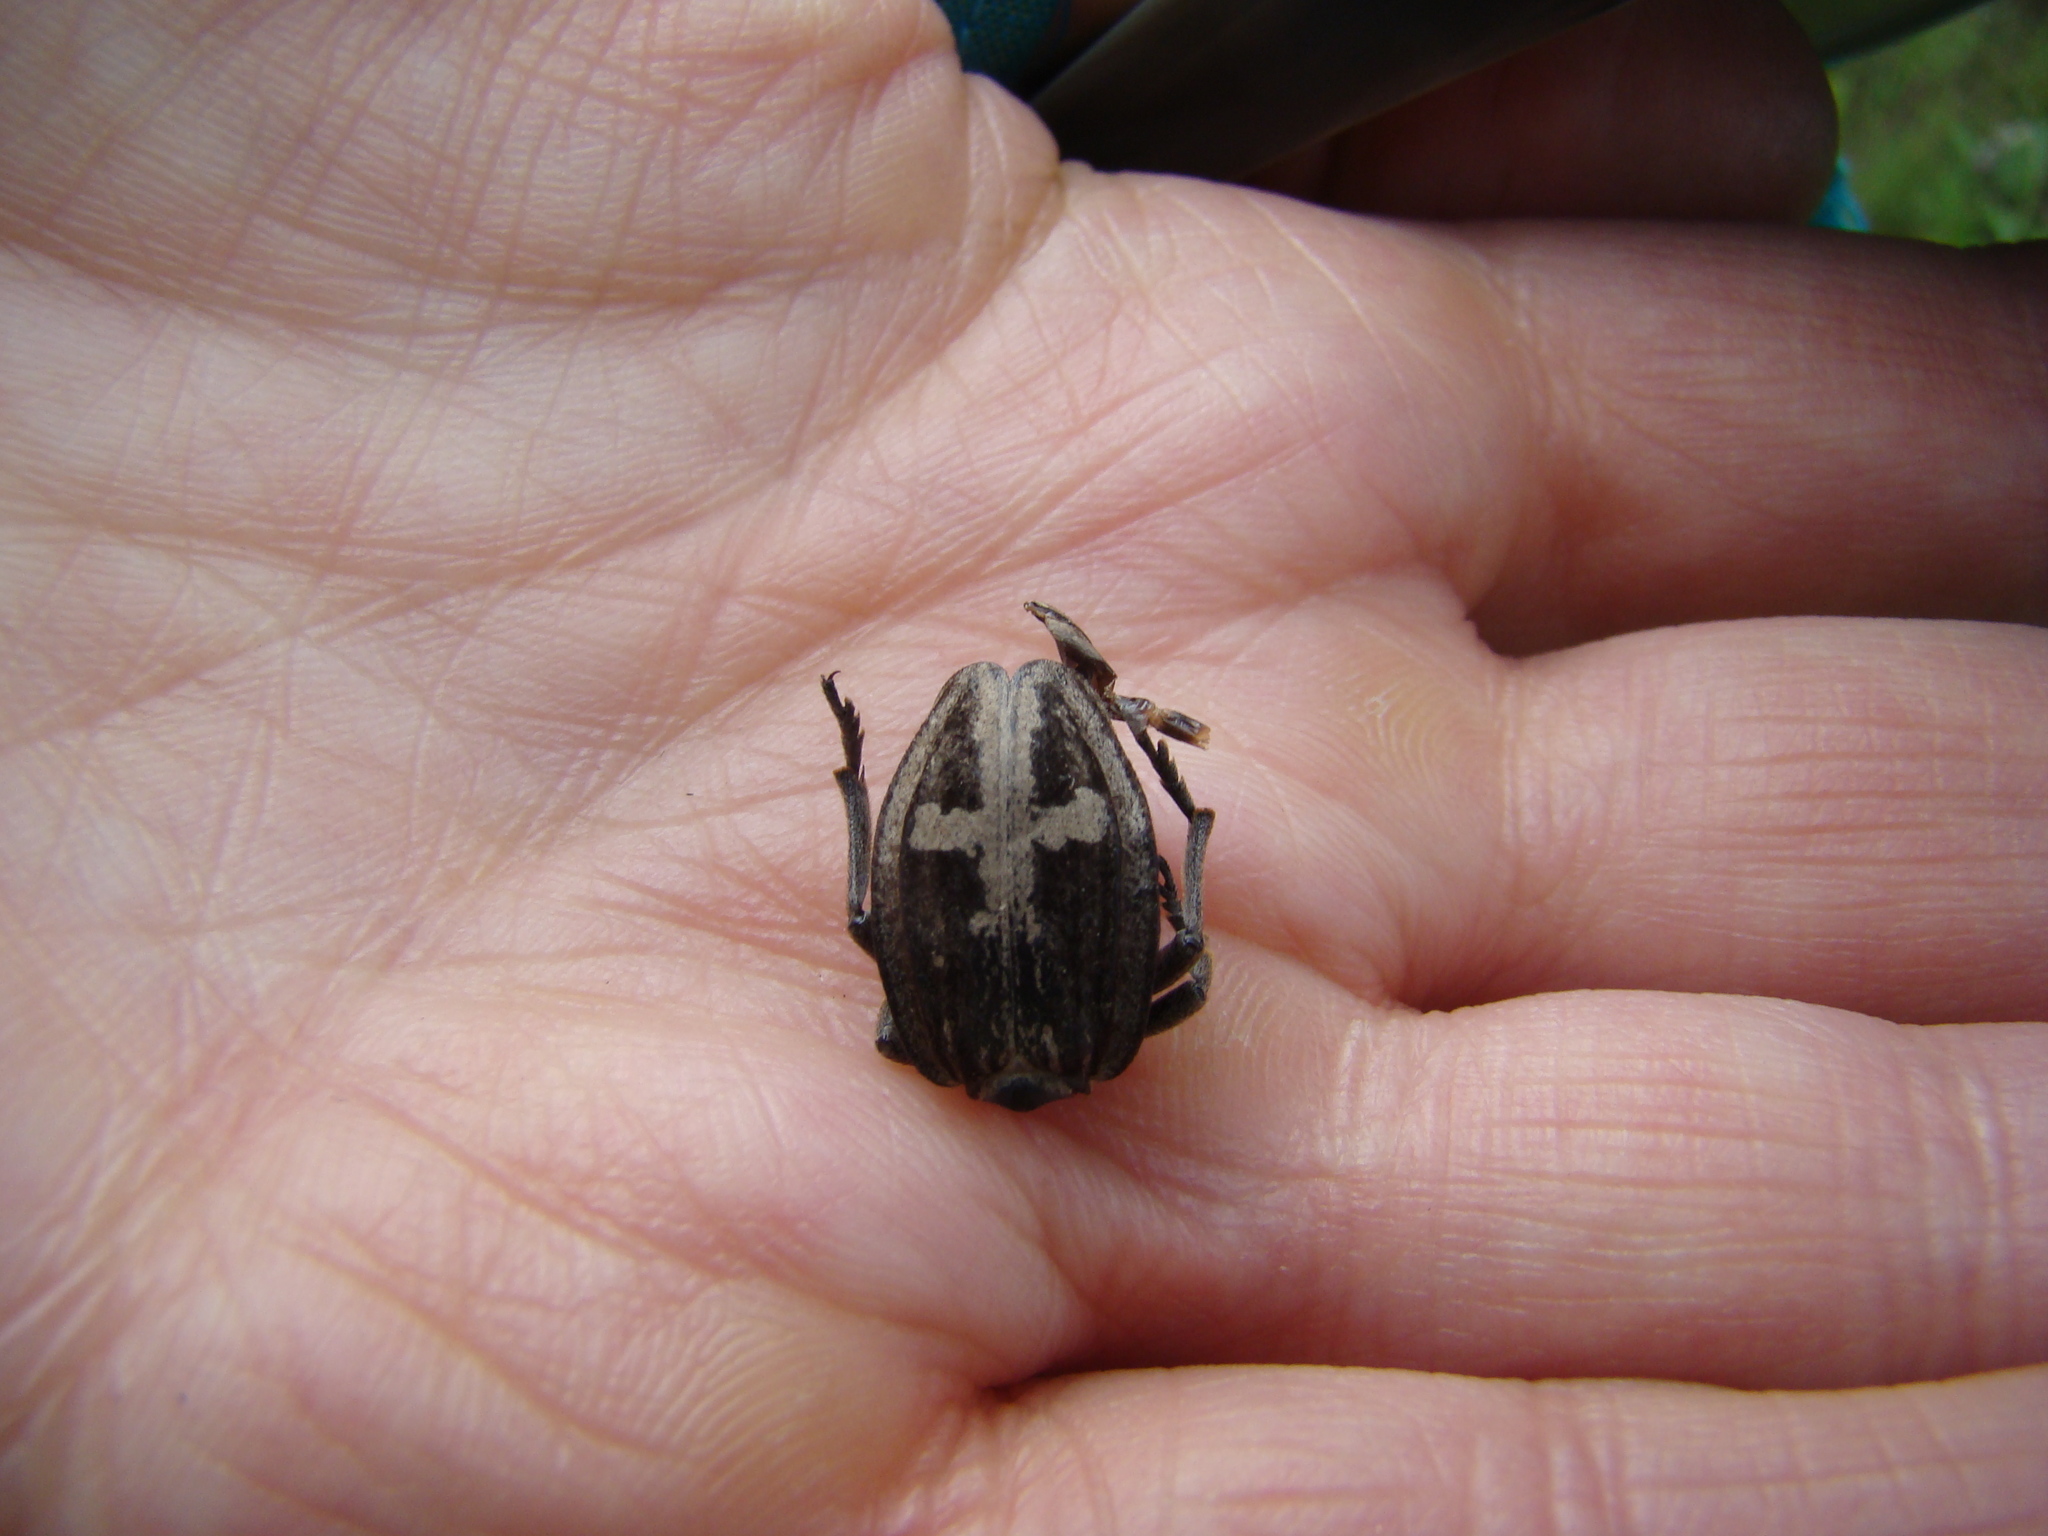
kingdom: Animalia
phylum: Arthropoda
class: Insecta
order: Coleoptera
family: Cerambycidae
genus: Dorcadion
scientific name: Dorcadion equestre
